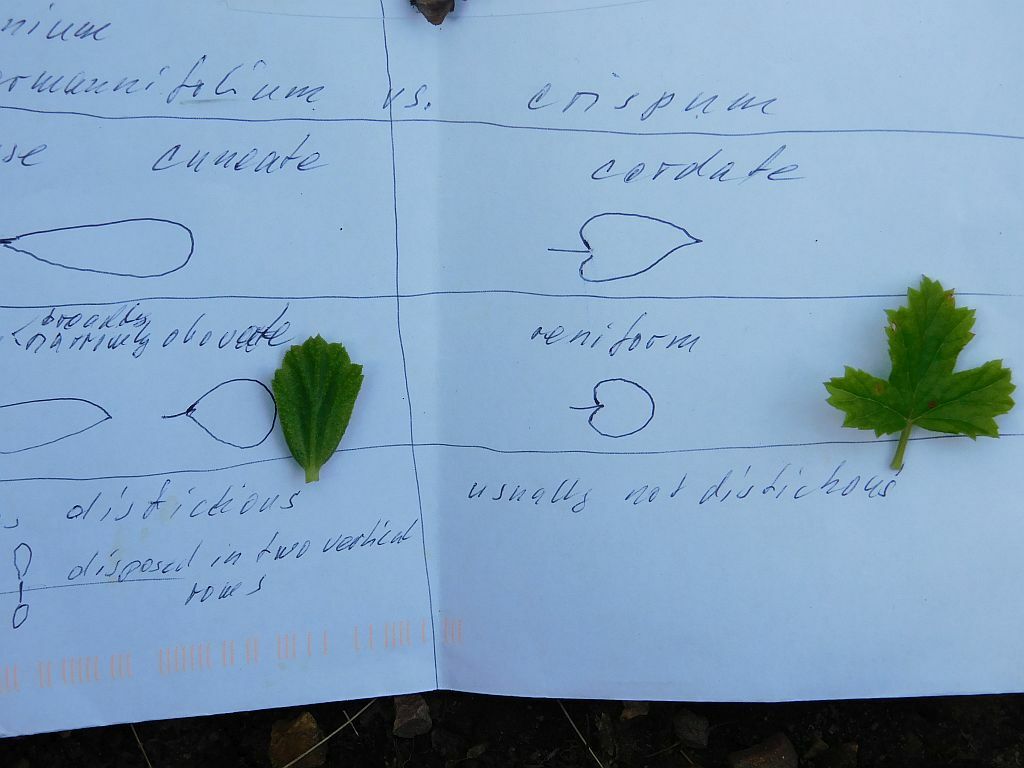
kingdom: Plantae
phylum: Tracheophyta
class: Magnoliopsida
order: Geraniales
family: Geraniaceae
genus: Pelargonium
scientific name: Pelargonium hermaniifolium
